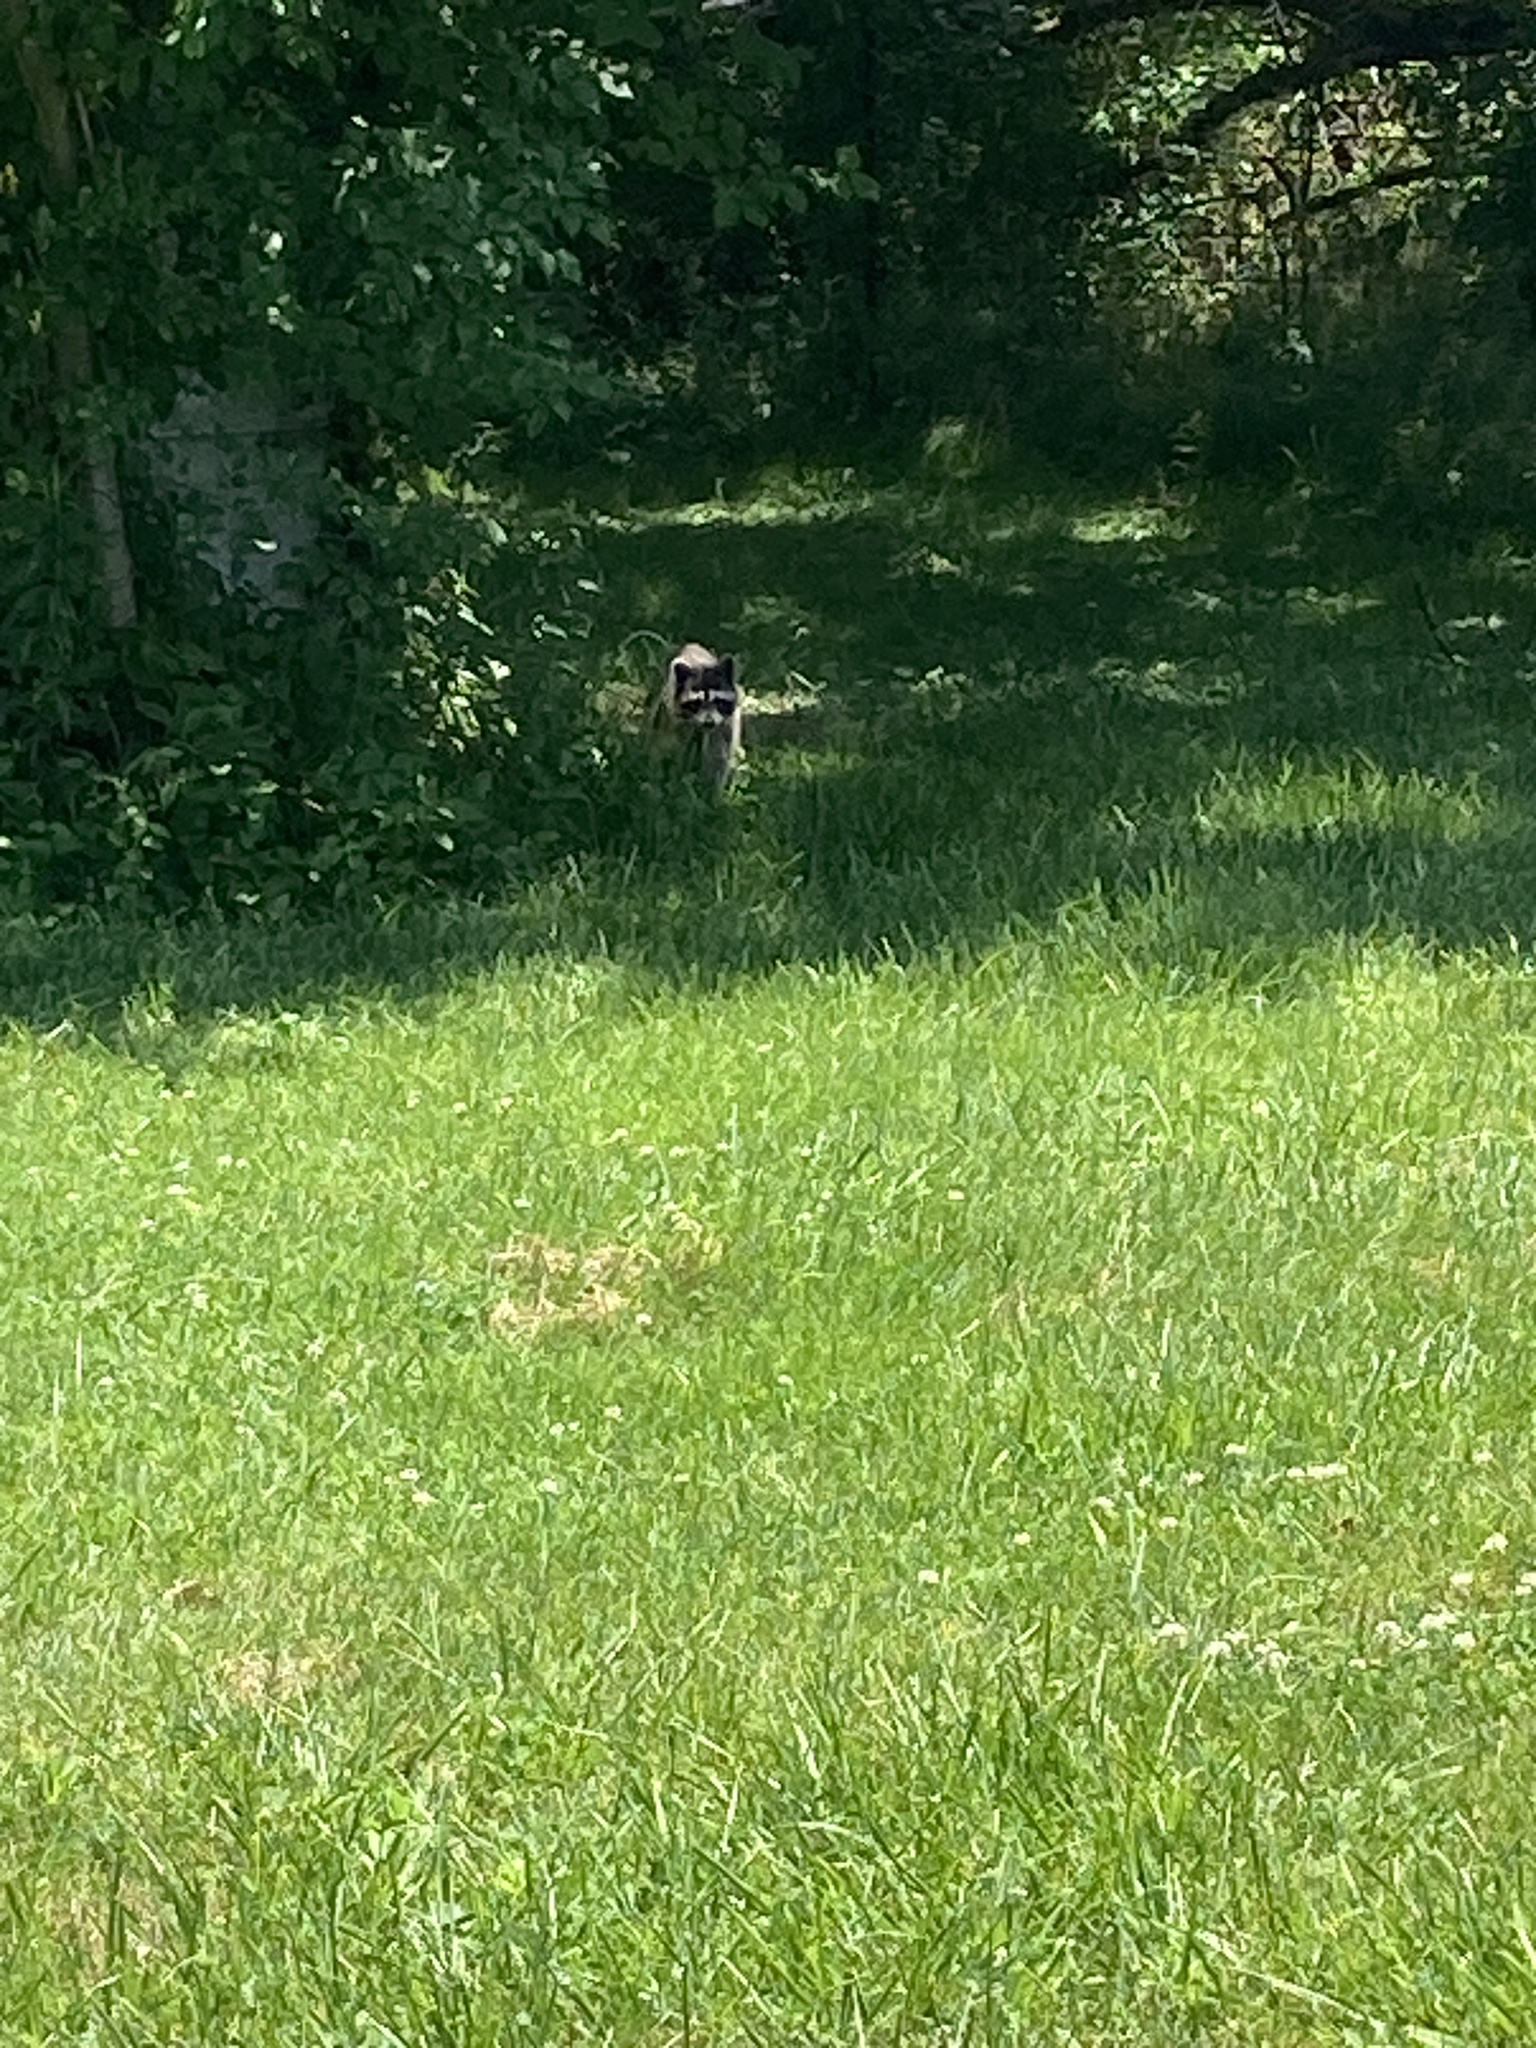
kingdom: Animalia
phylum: Chordata
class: Mammalia
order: Carnivora
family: Procyonidae
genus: Procyon
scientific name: Procyon lotor
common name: Raccoon
